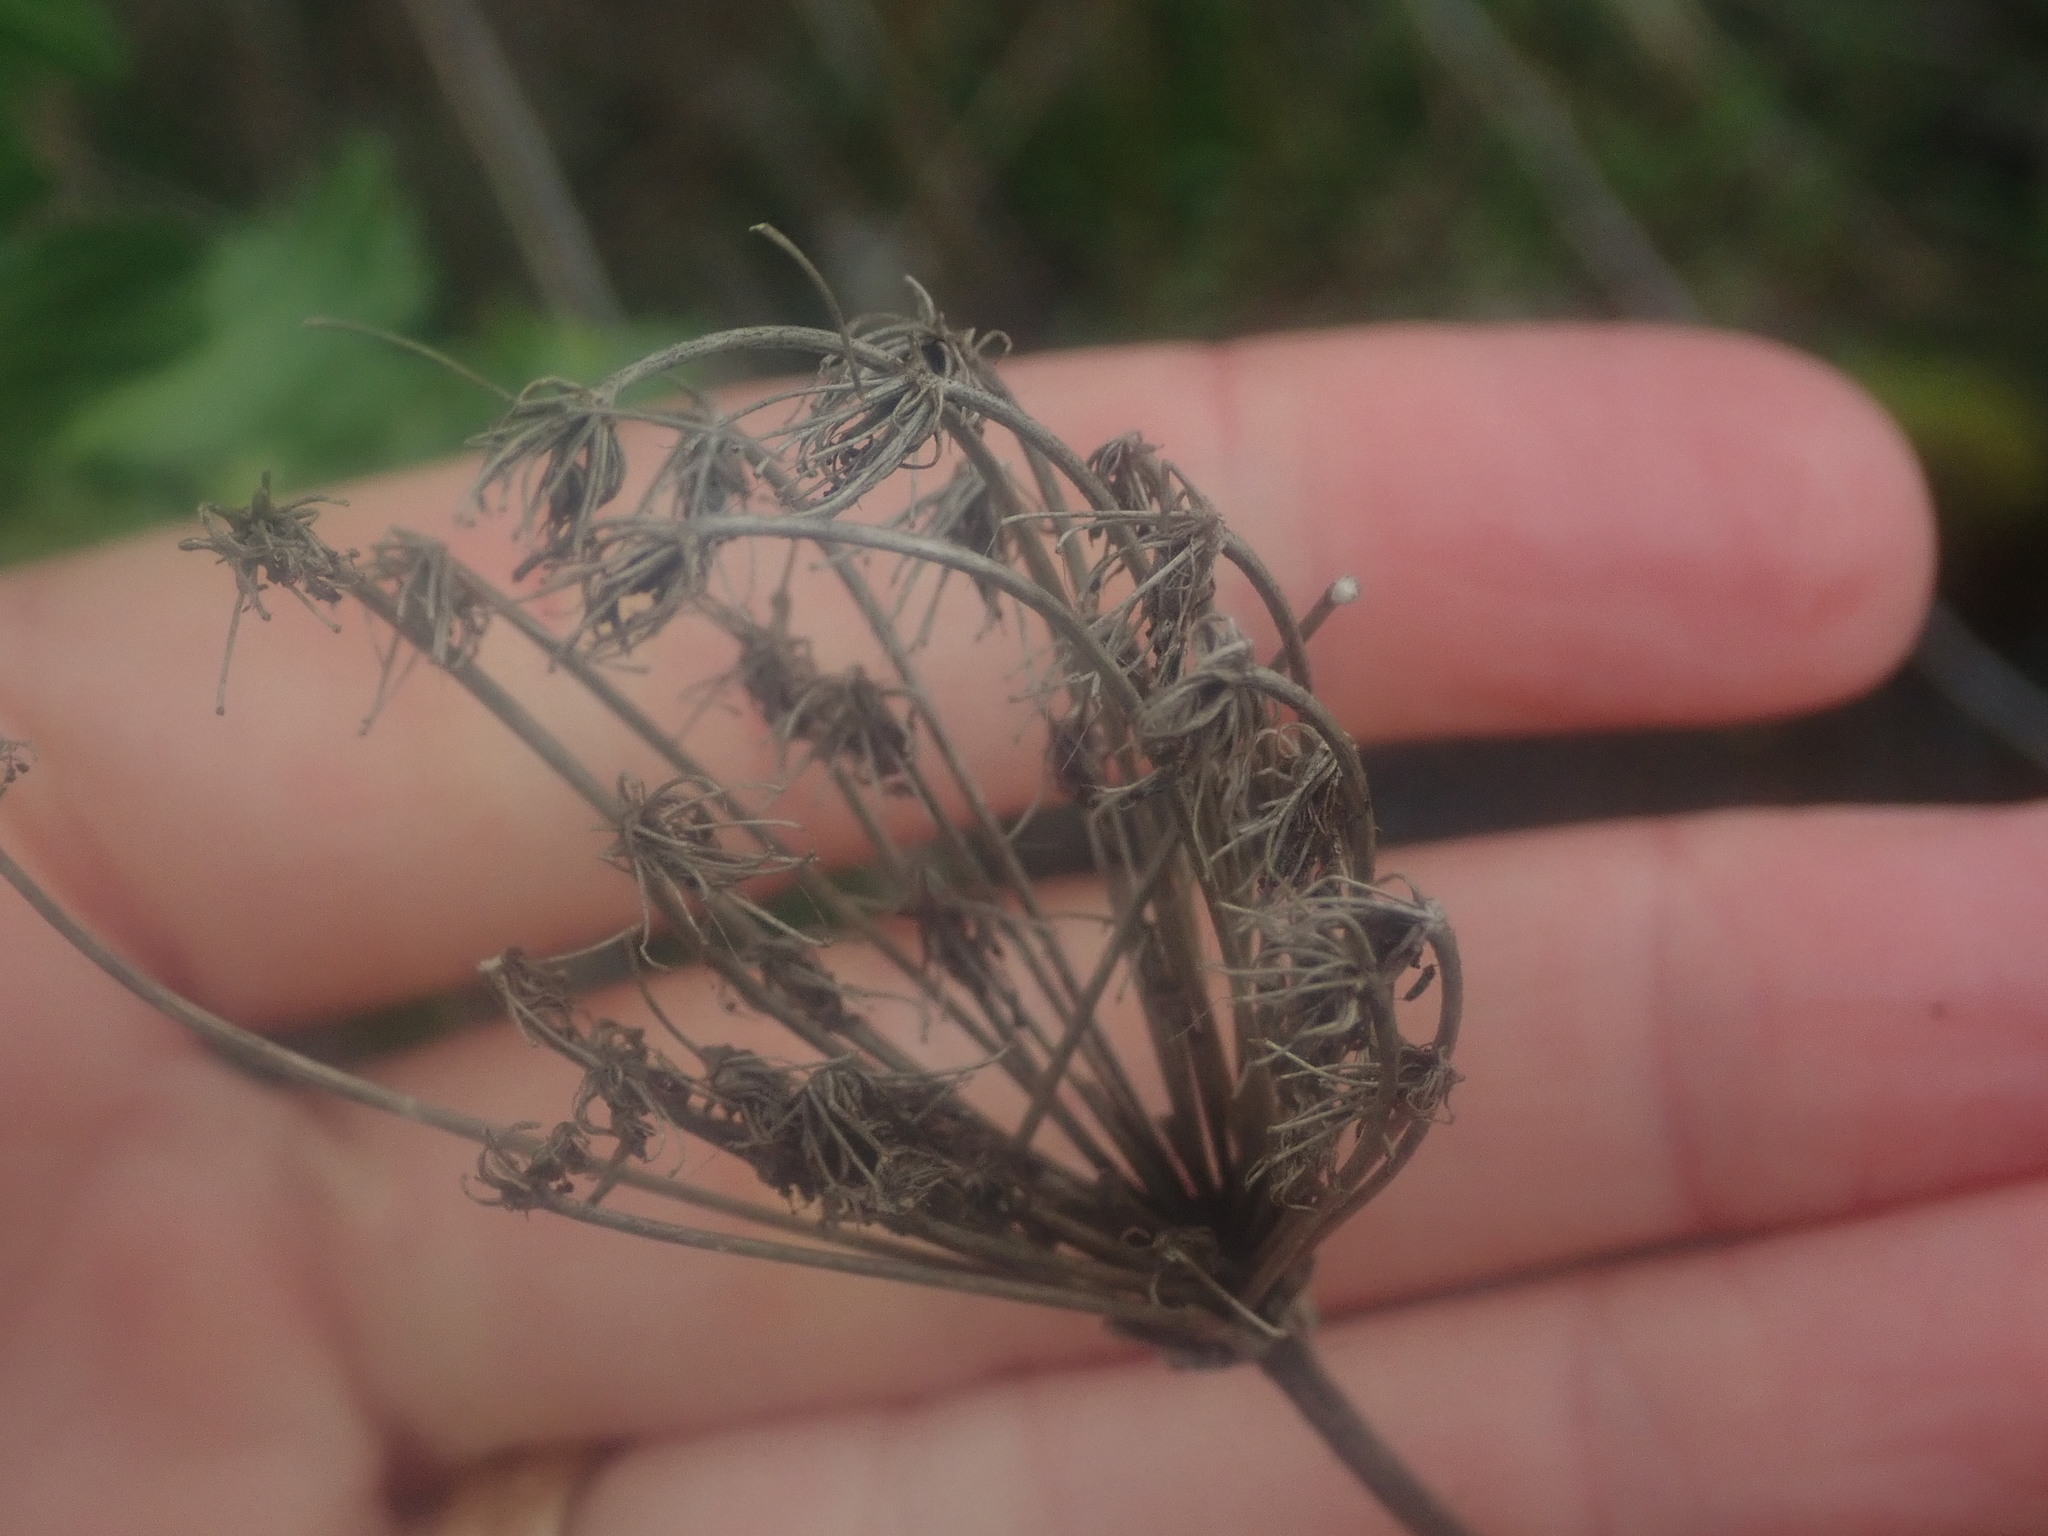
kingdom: Plantae
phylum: Tracheophyta
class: Magnoliopsida
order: Apiales
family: Apiaceae
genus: Daucus
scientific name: Daucus carota
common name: Wild carrot
